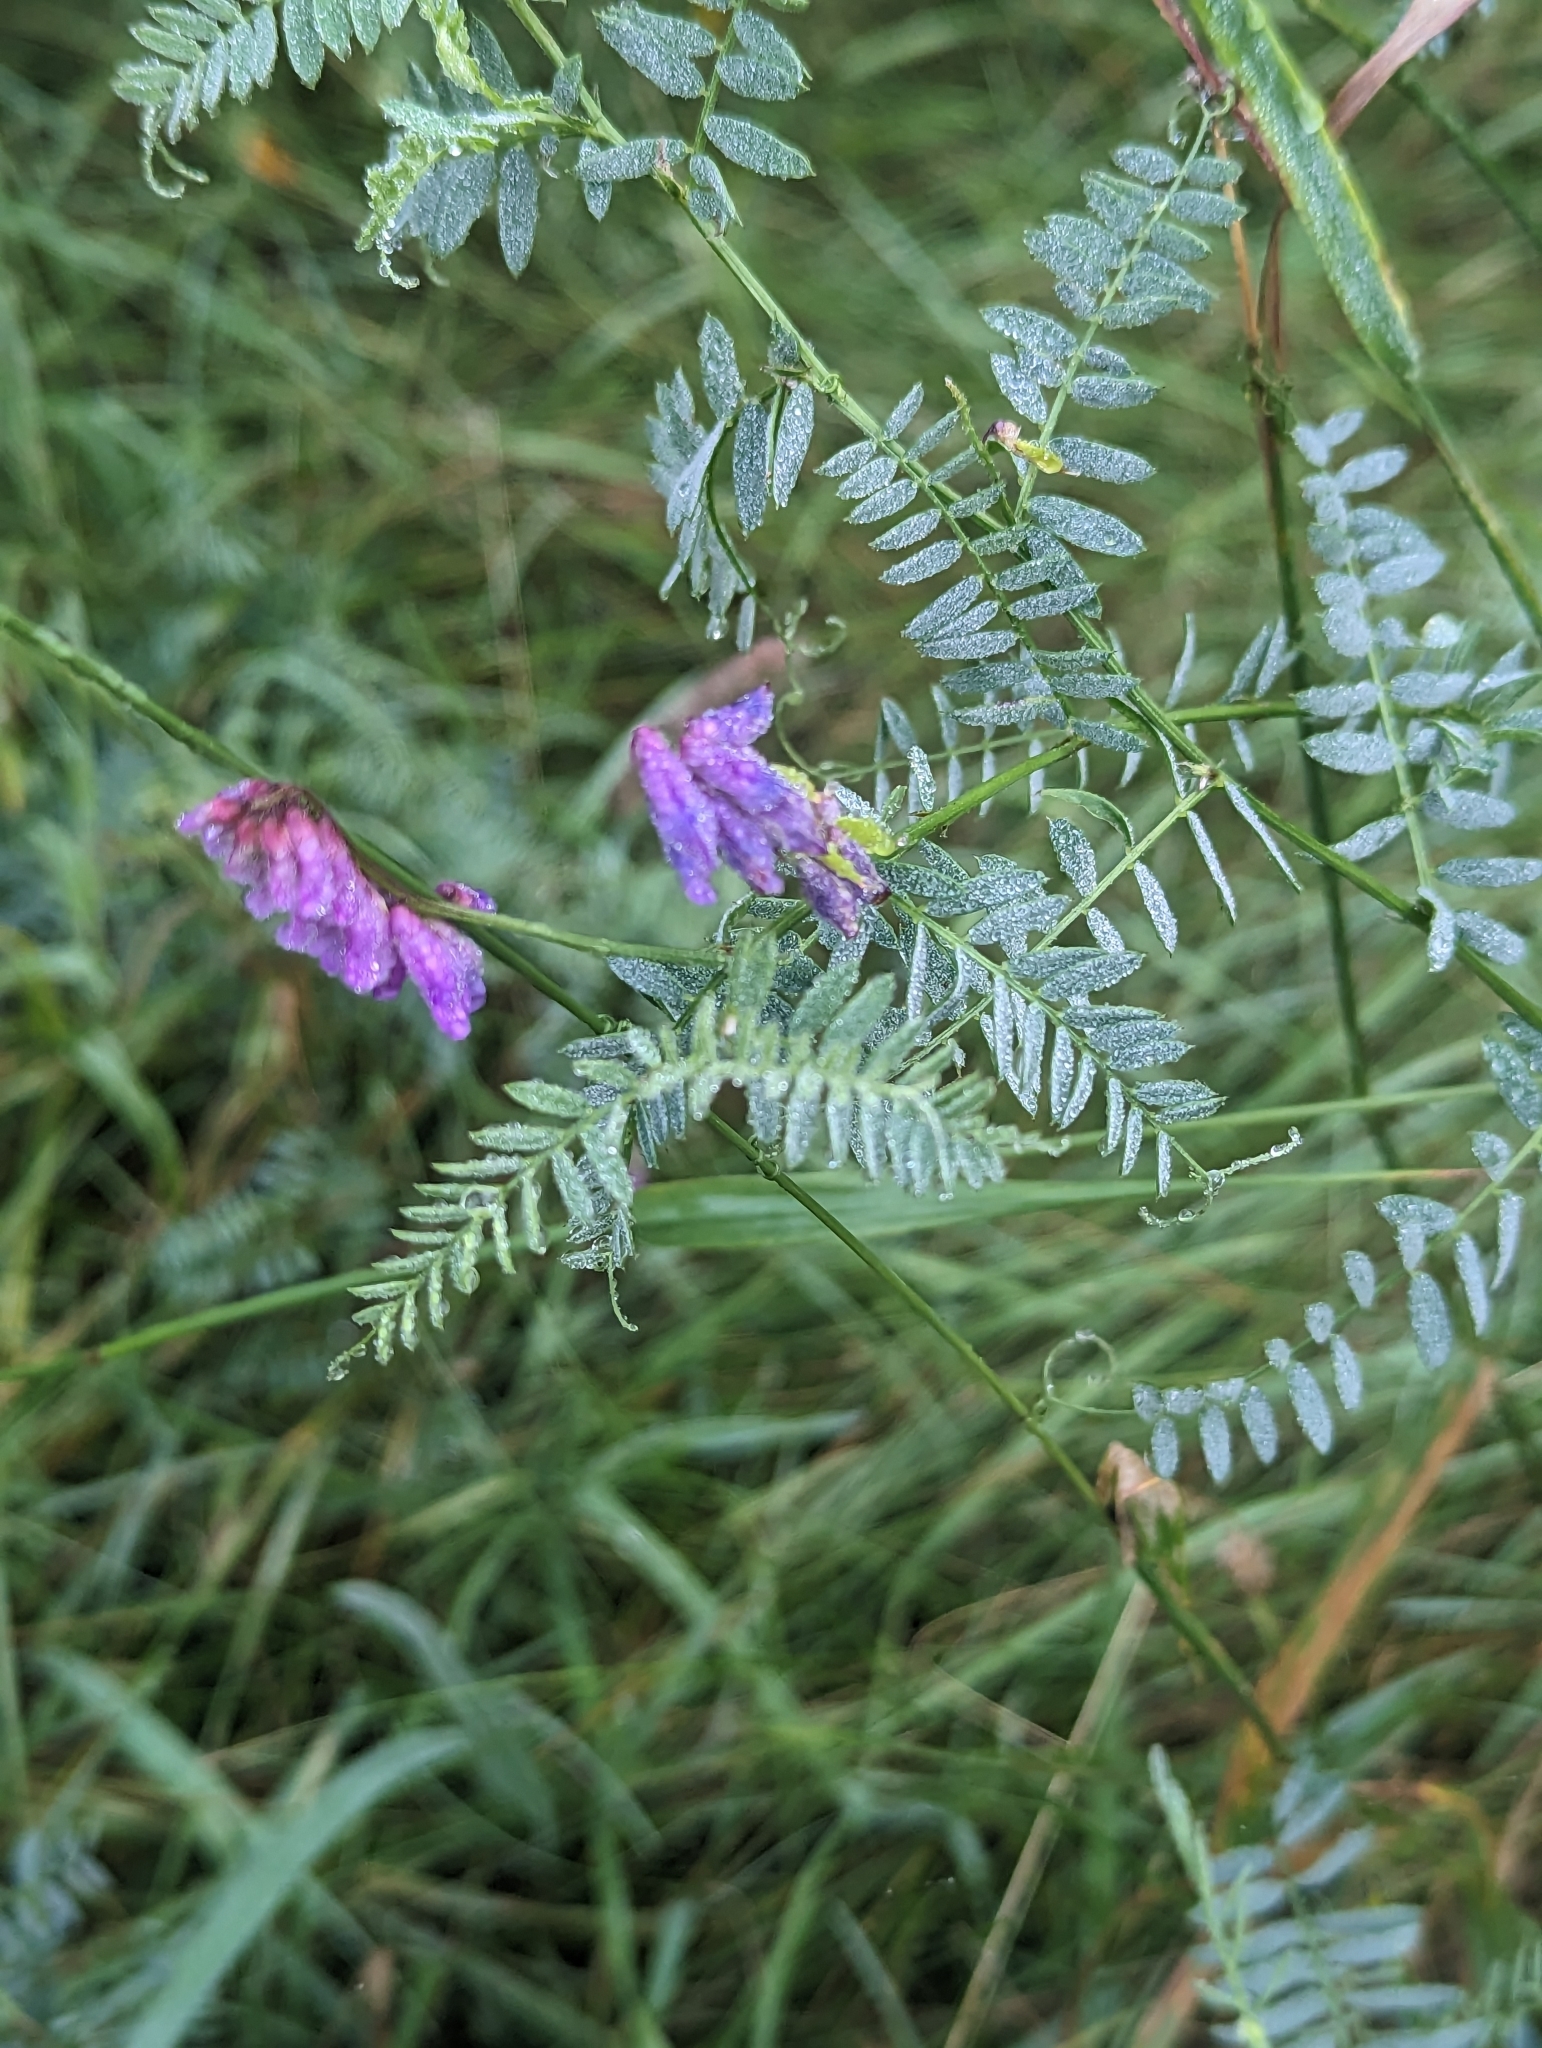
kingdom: Plantae
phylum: Tracheophyta
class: Magnoliopsida
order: Fabales
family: Fabaceae
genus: Vicia
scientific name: Vicia cracca
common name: Bird vetch
